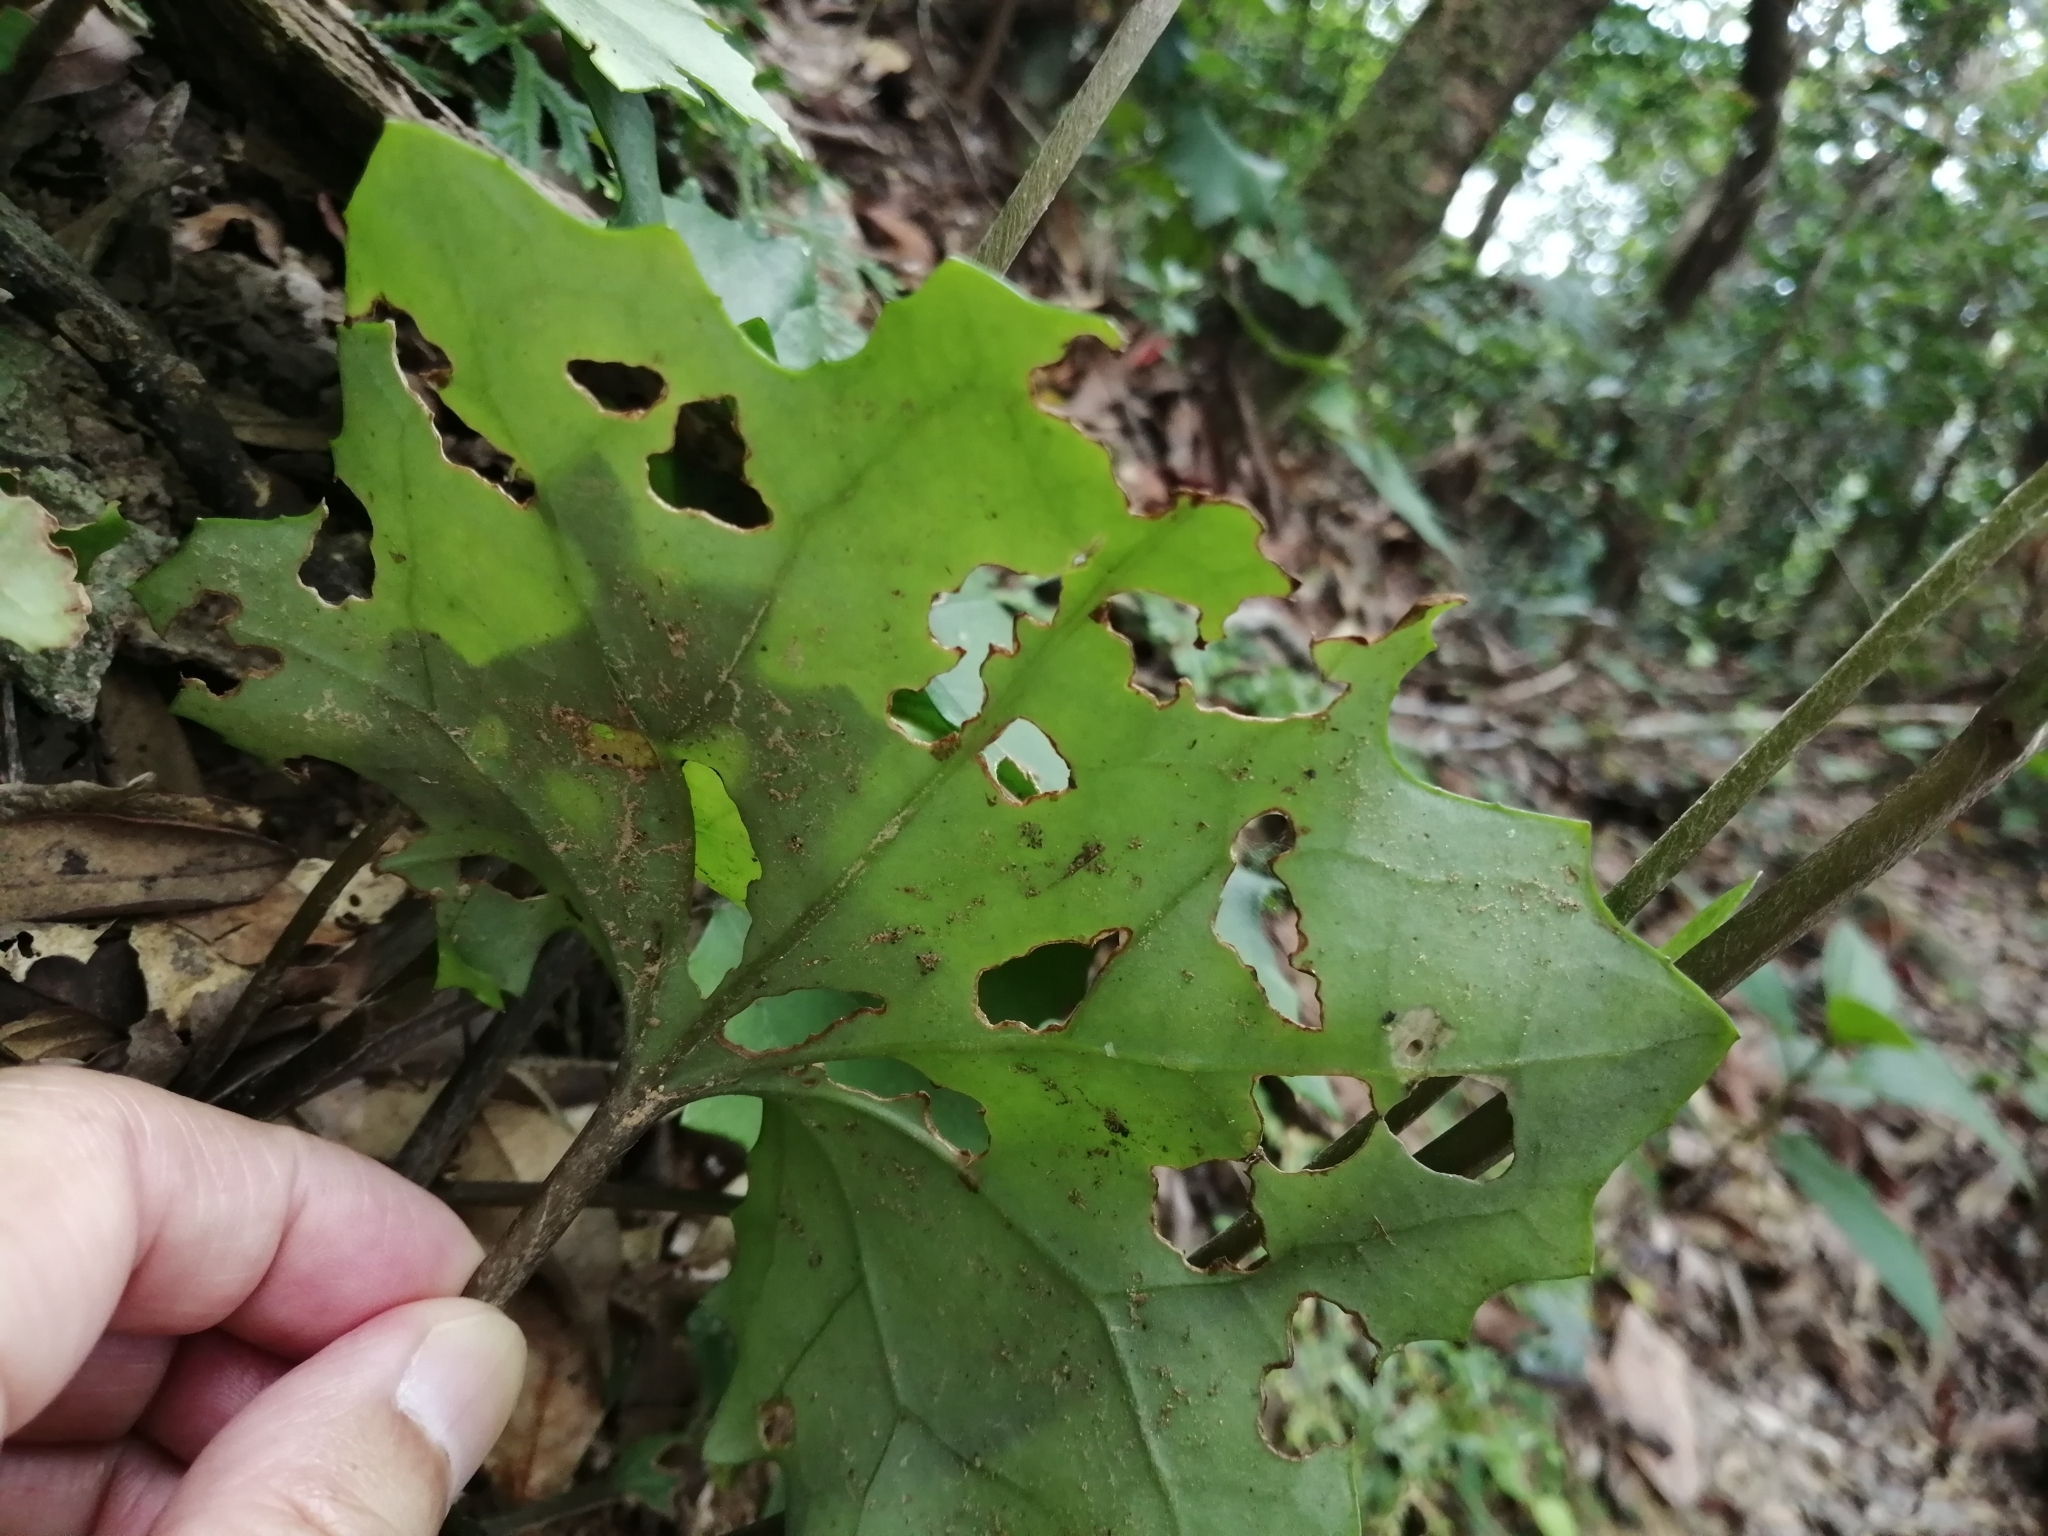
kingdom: Plantae
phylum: Tracheophyta
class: Magnoliopsida
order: Asterales
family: Asteraceae
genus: Farfugium
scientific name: Farfugium japonicum
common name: Leopardplant
